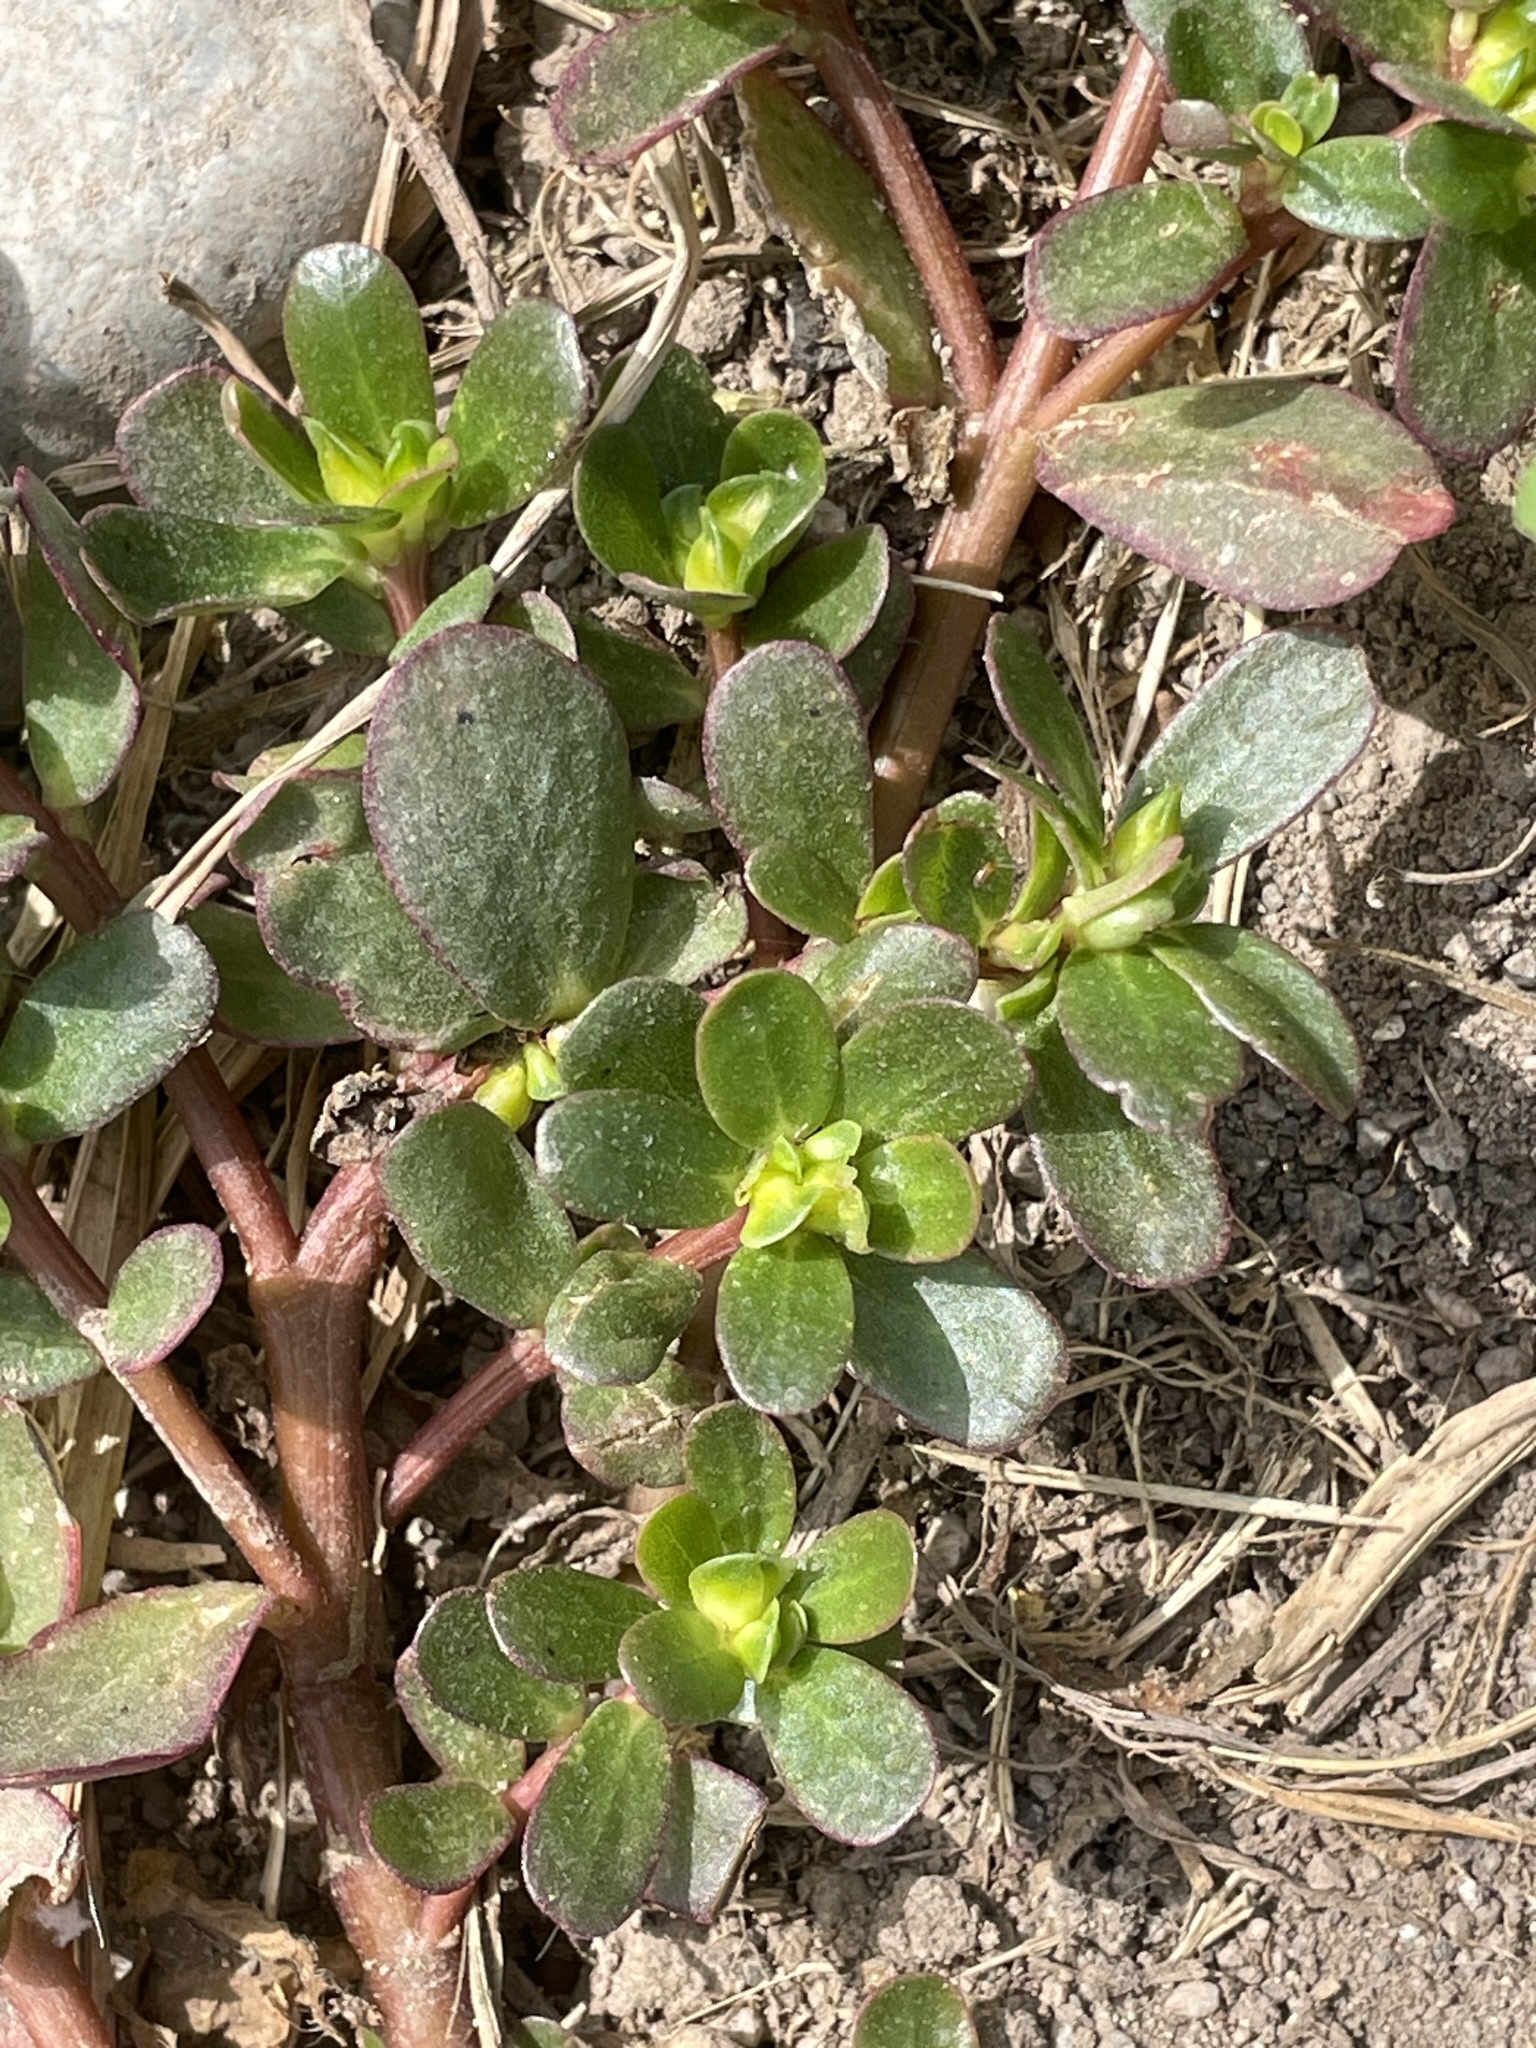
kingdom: Plantae
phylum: Tracheophyta
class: Magnoliopsida
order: Caryophyllales
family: Portulacaceae
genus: Portulaca
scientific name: Portulaca oleracea
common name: Common purslane
